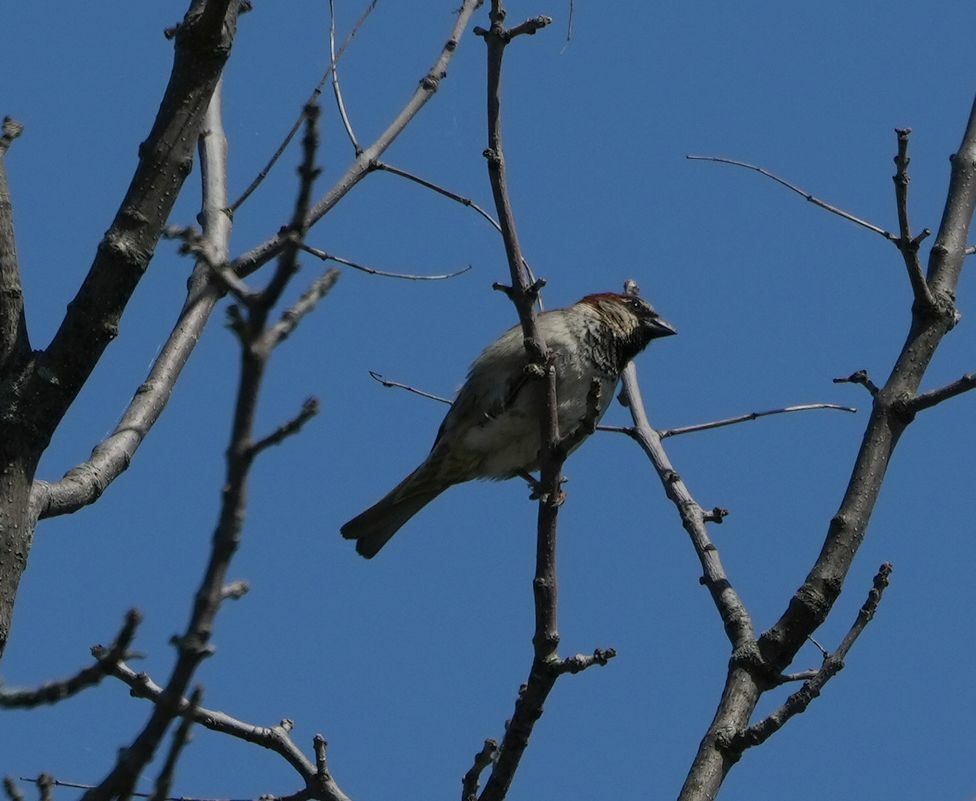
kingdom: Animalia
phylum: Chordata
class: Aves
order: Passeriformes
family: Passeridae
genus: Passer
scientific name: Passer domesticus
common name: House sparrow
